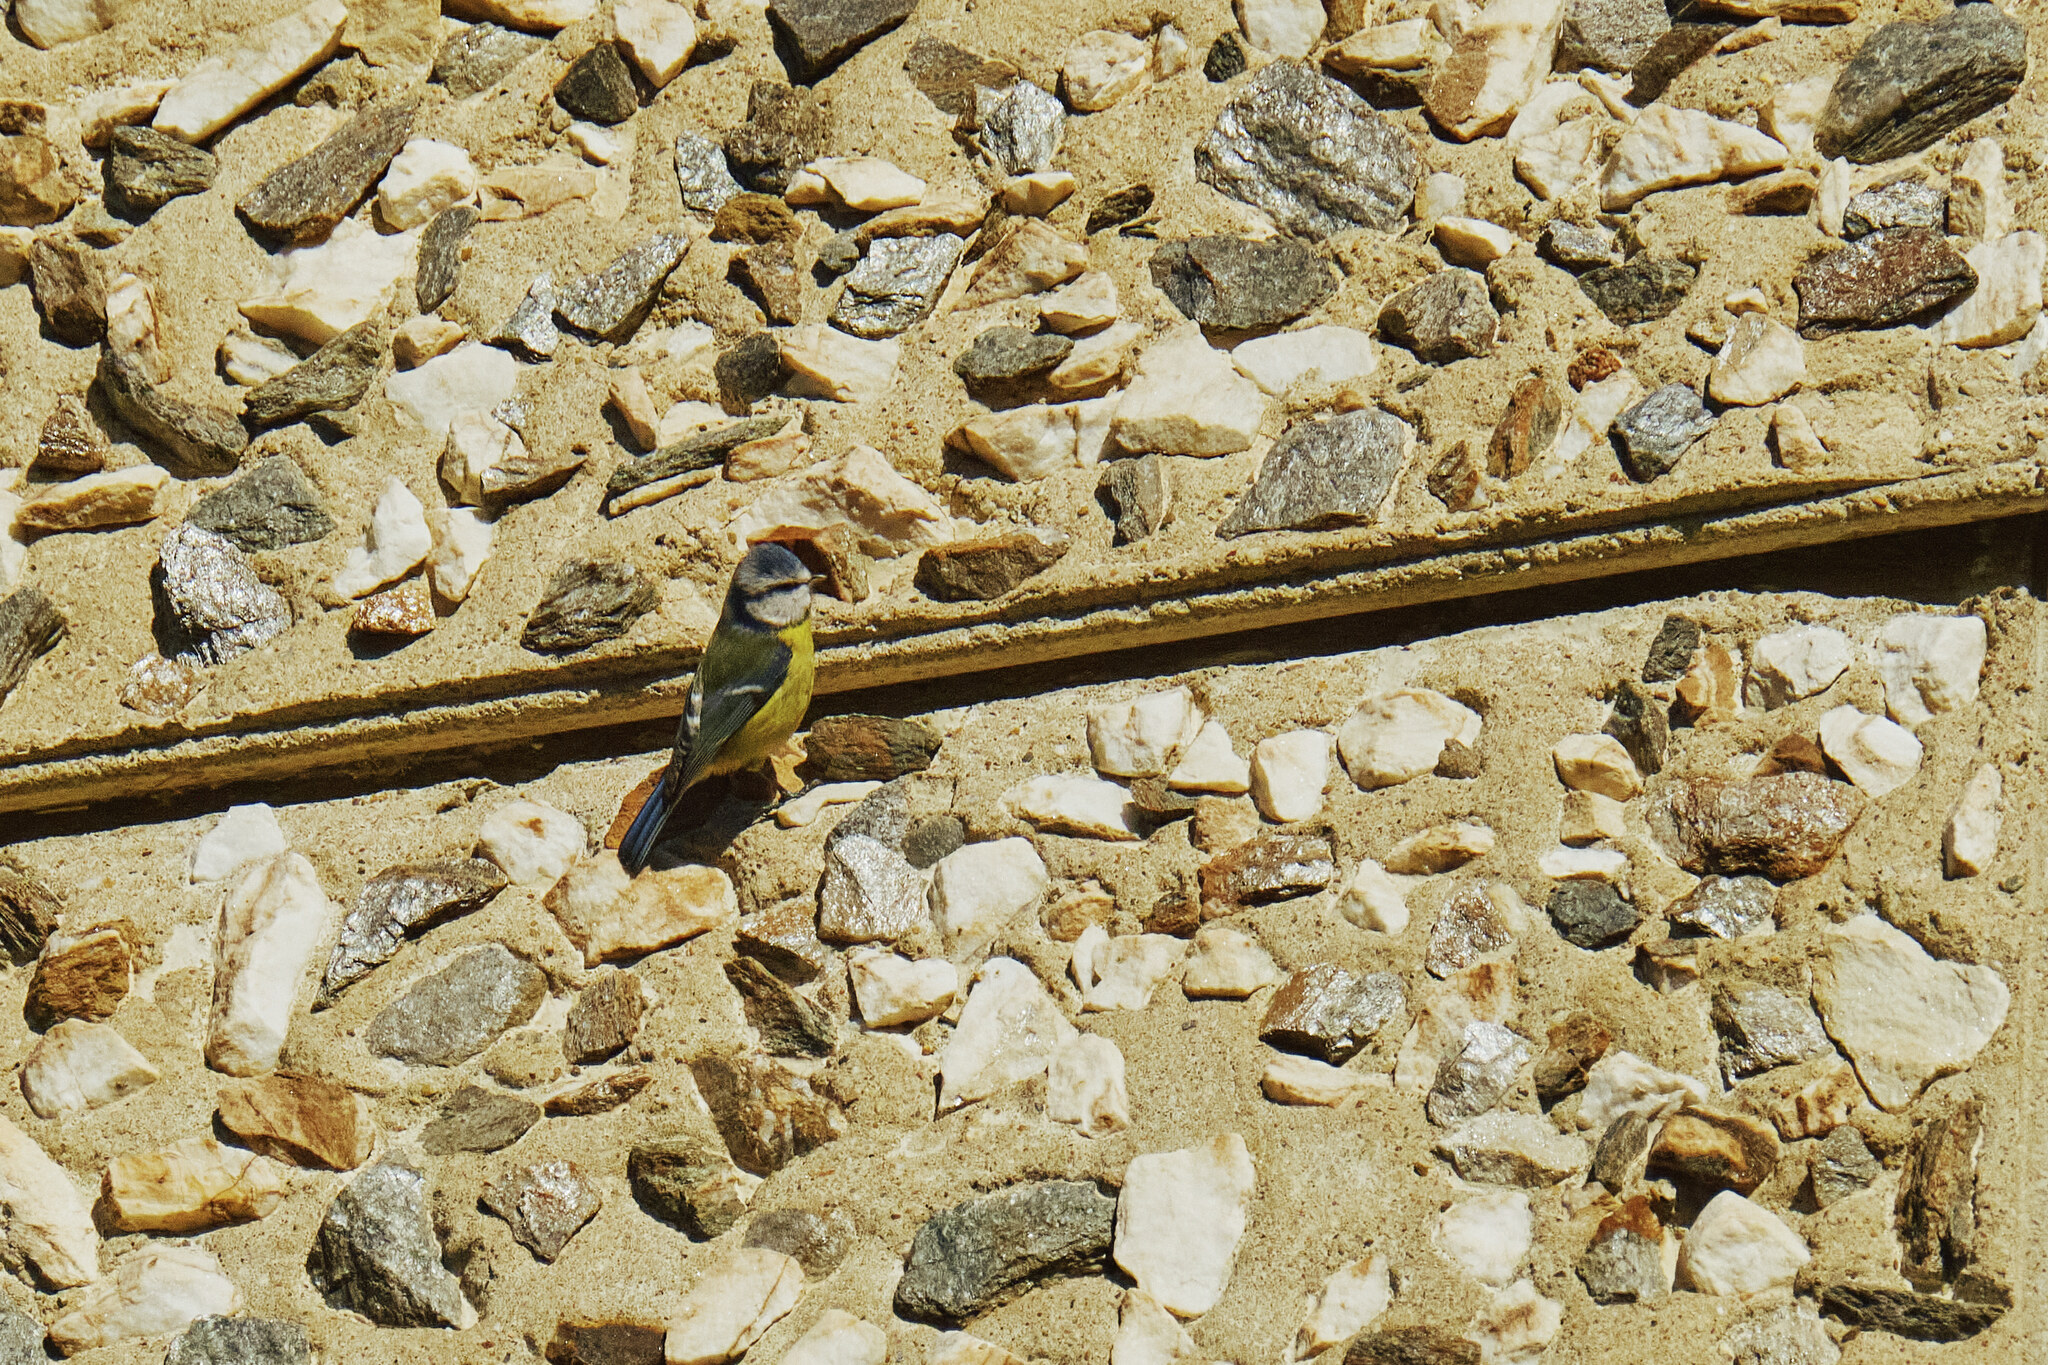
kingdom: Animalia
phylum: Chordata
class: Aves
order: Passeriformes
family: Paridae
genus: Cyanistes
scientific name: Cyanistes caeruleus
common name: Eurasian blue tit
